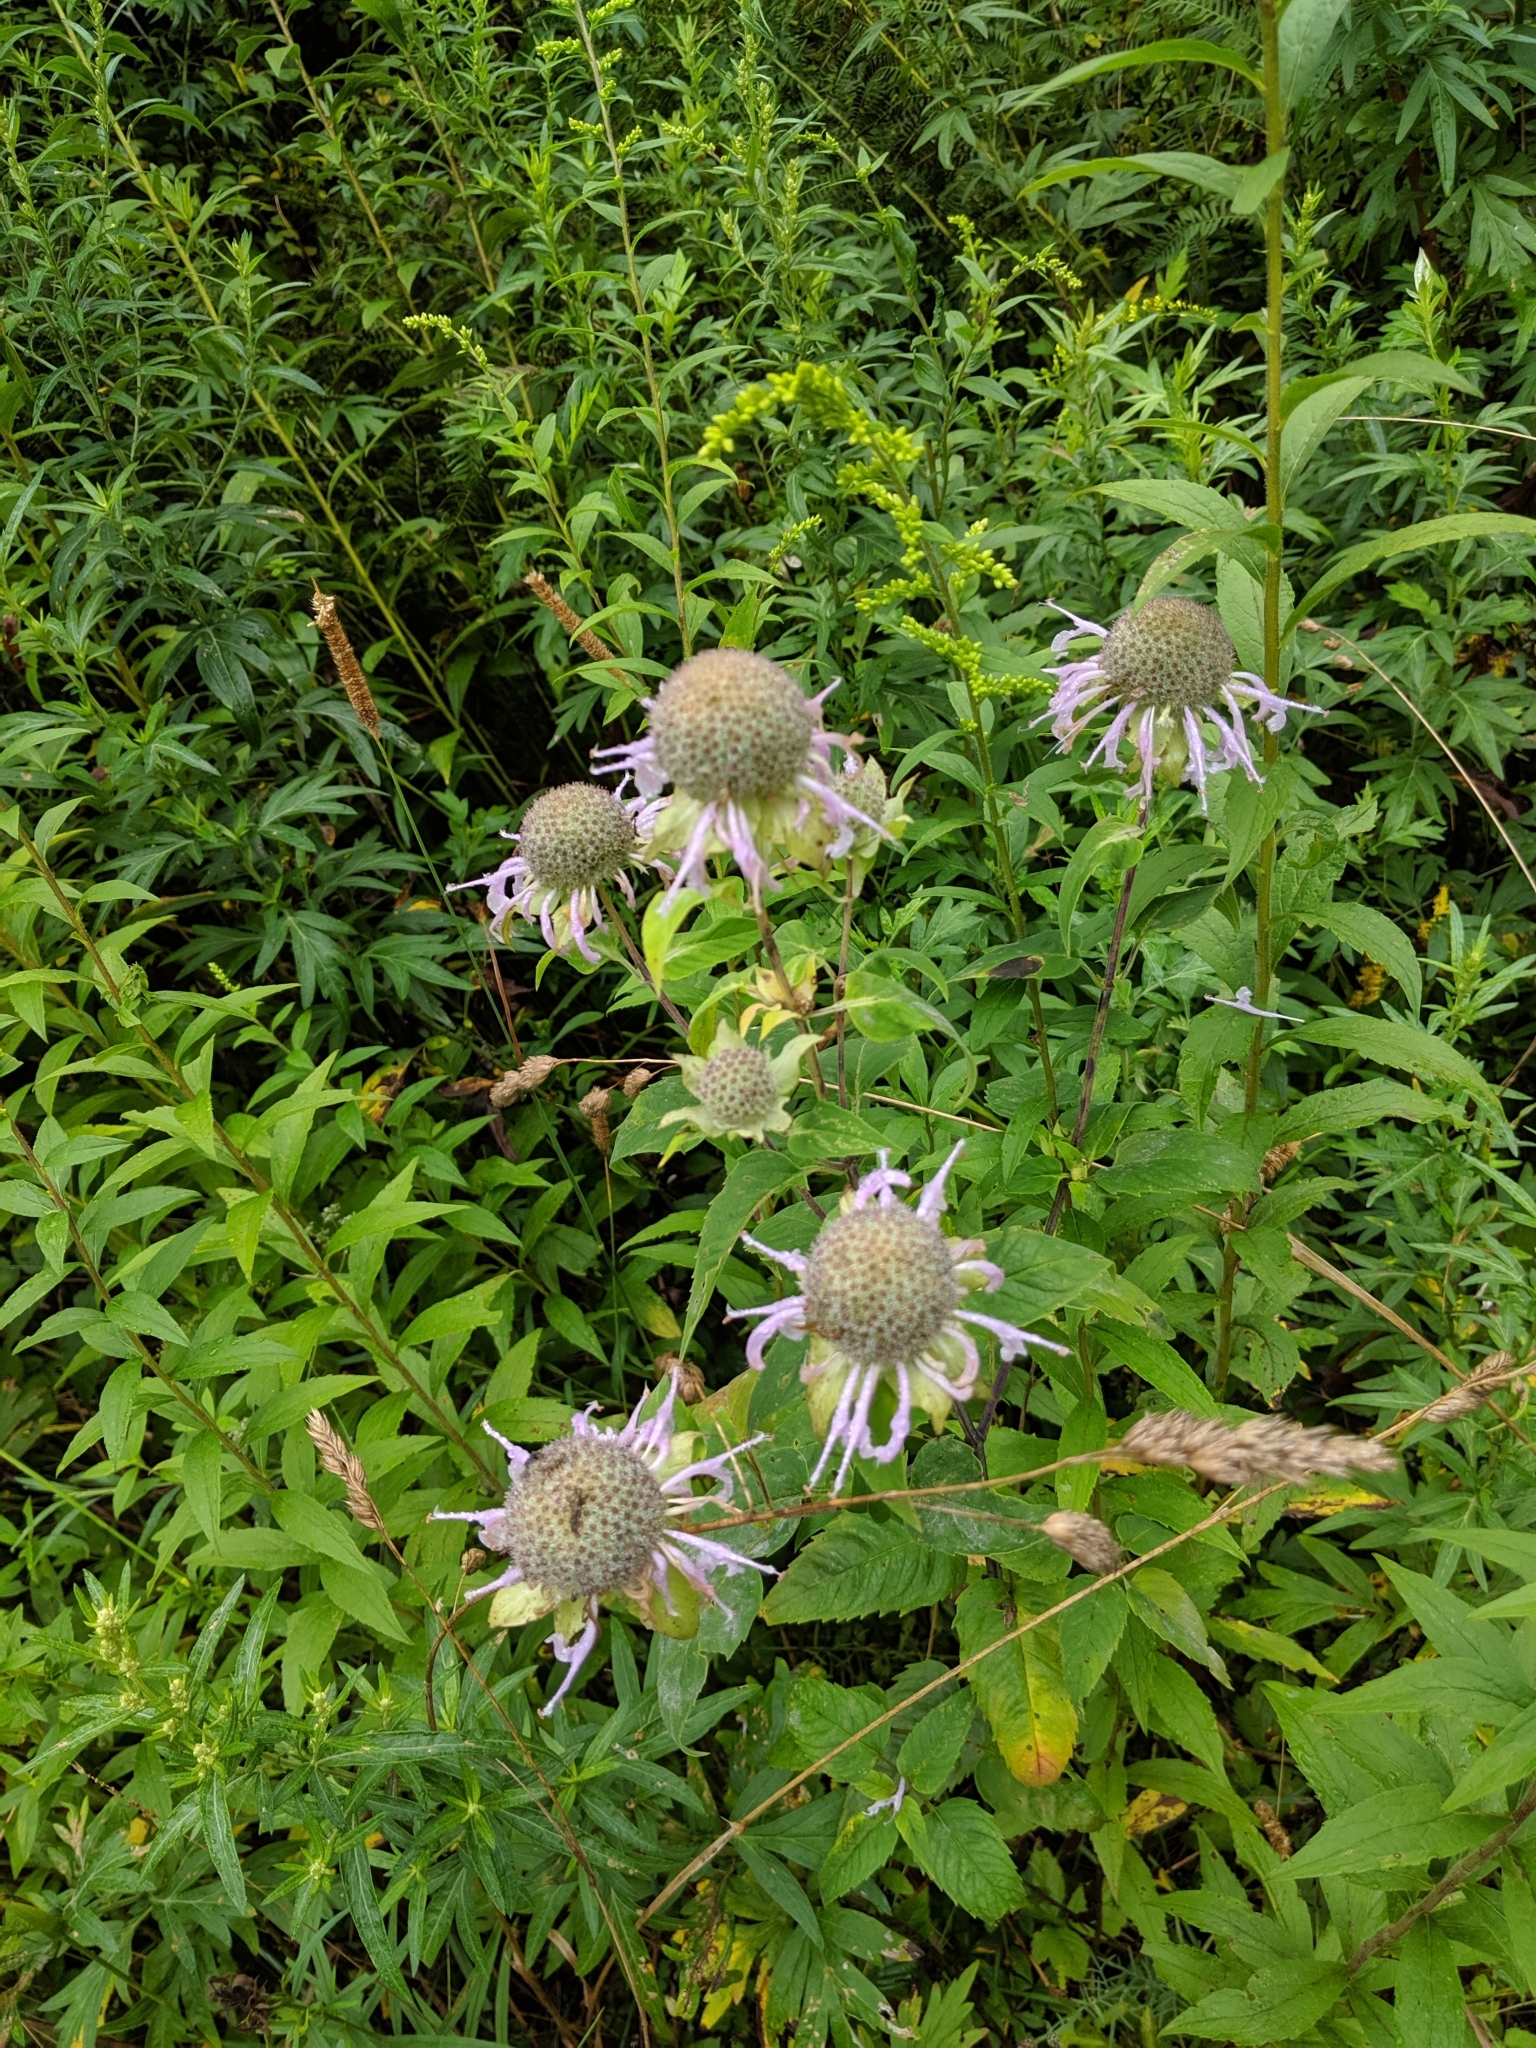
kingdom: Plantae
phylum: Tracheophyta
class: Magnoliopsida
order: Lamiales
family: Lamiaceae
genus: Monarda
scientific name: Monarda fistulosa
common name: Purple beebalm
